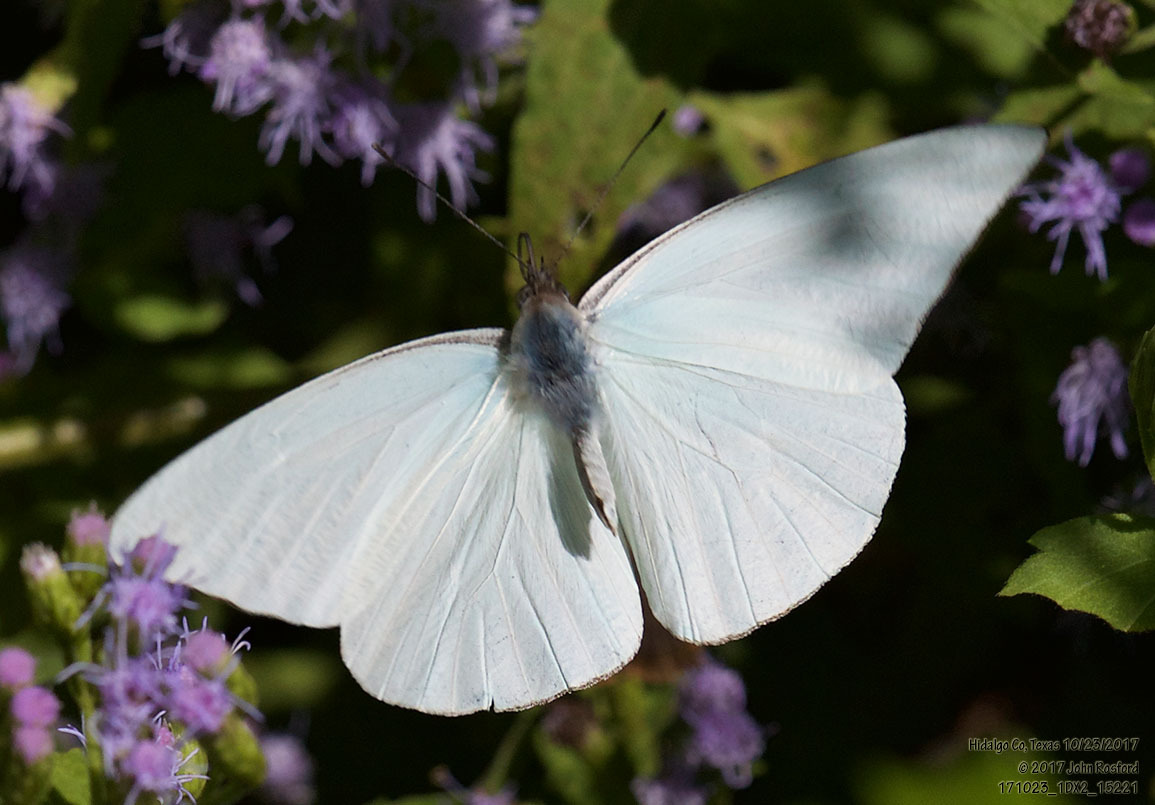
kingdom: Animalia
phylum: Arthropoda
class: Insecta
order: Lepidoptera
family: Pieridae
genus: Glutophrissa
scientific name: Glutophrissa drusilla
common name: Florida white
